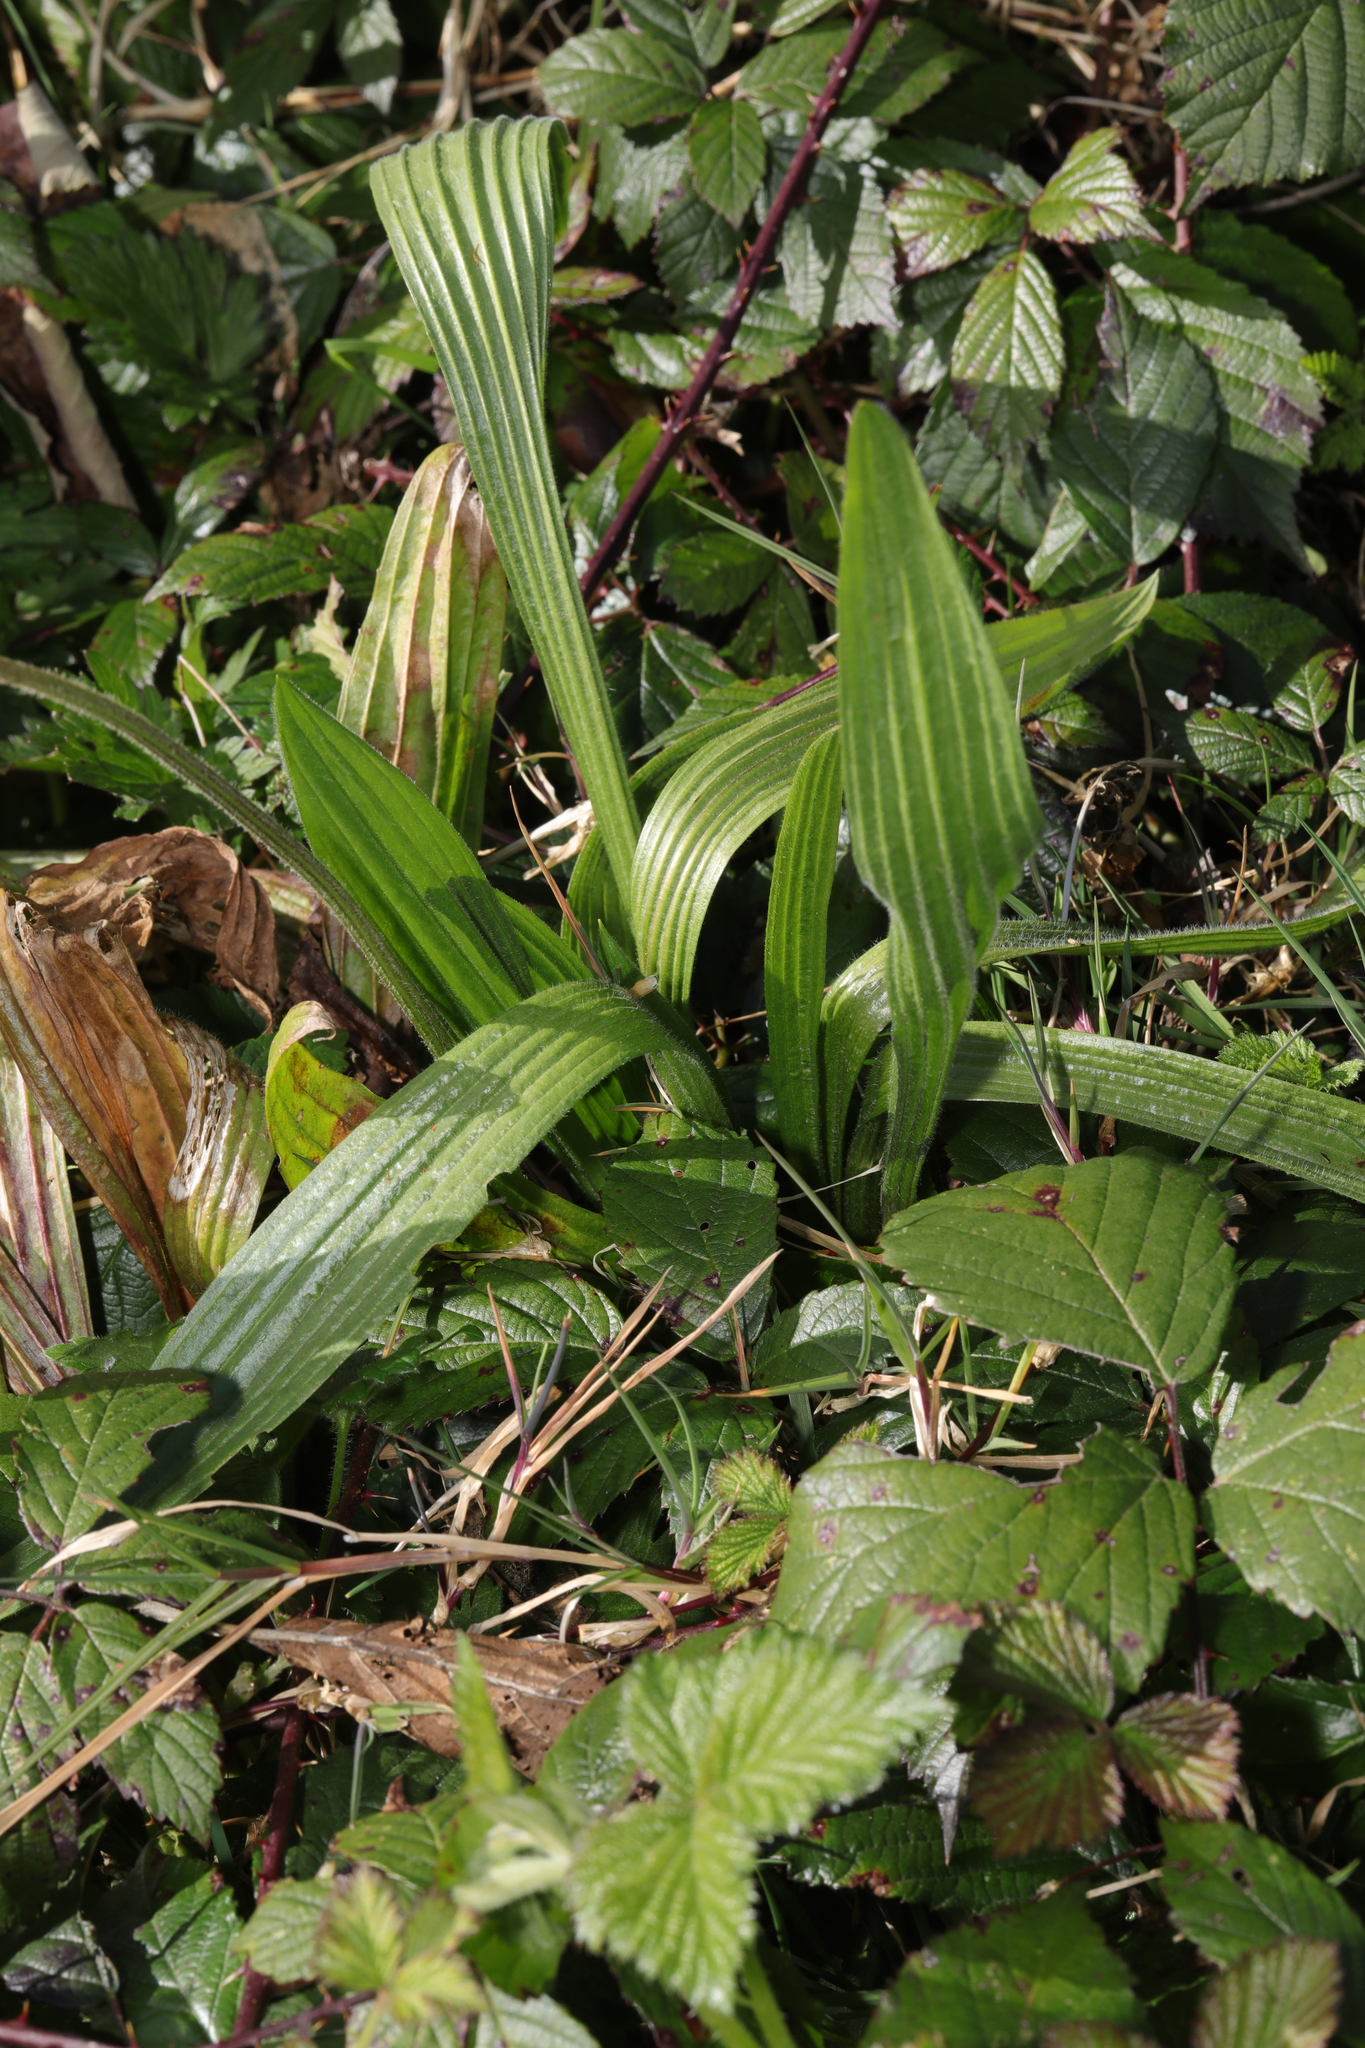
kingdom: Plantae
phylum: Tracheophyta
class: Magnoliopsida
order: Lamiales
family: Plantaginaceae
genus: Plantago
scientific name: Plantago lanceolata
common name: Ribwort plantain
